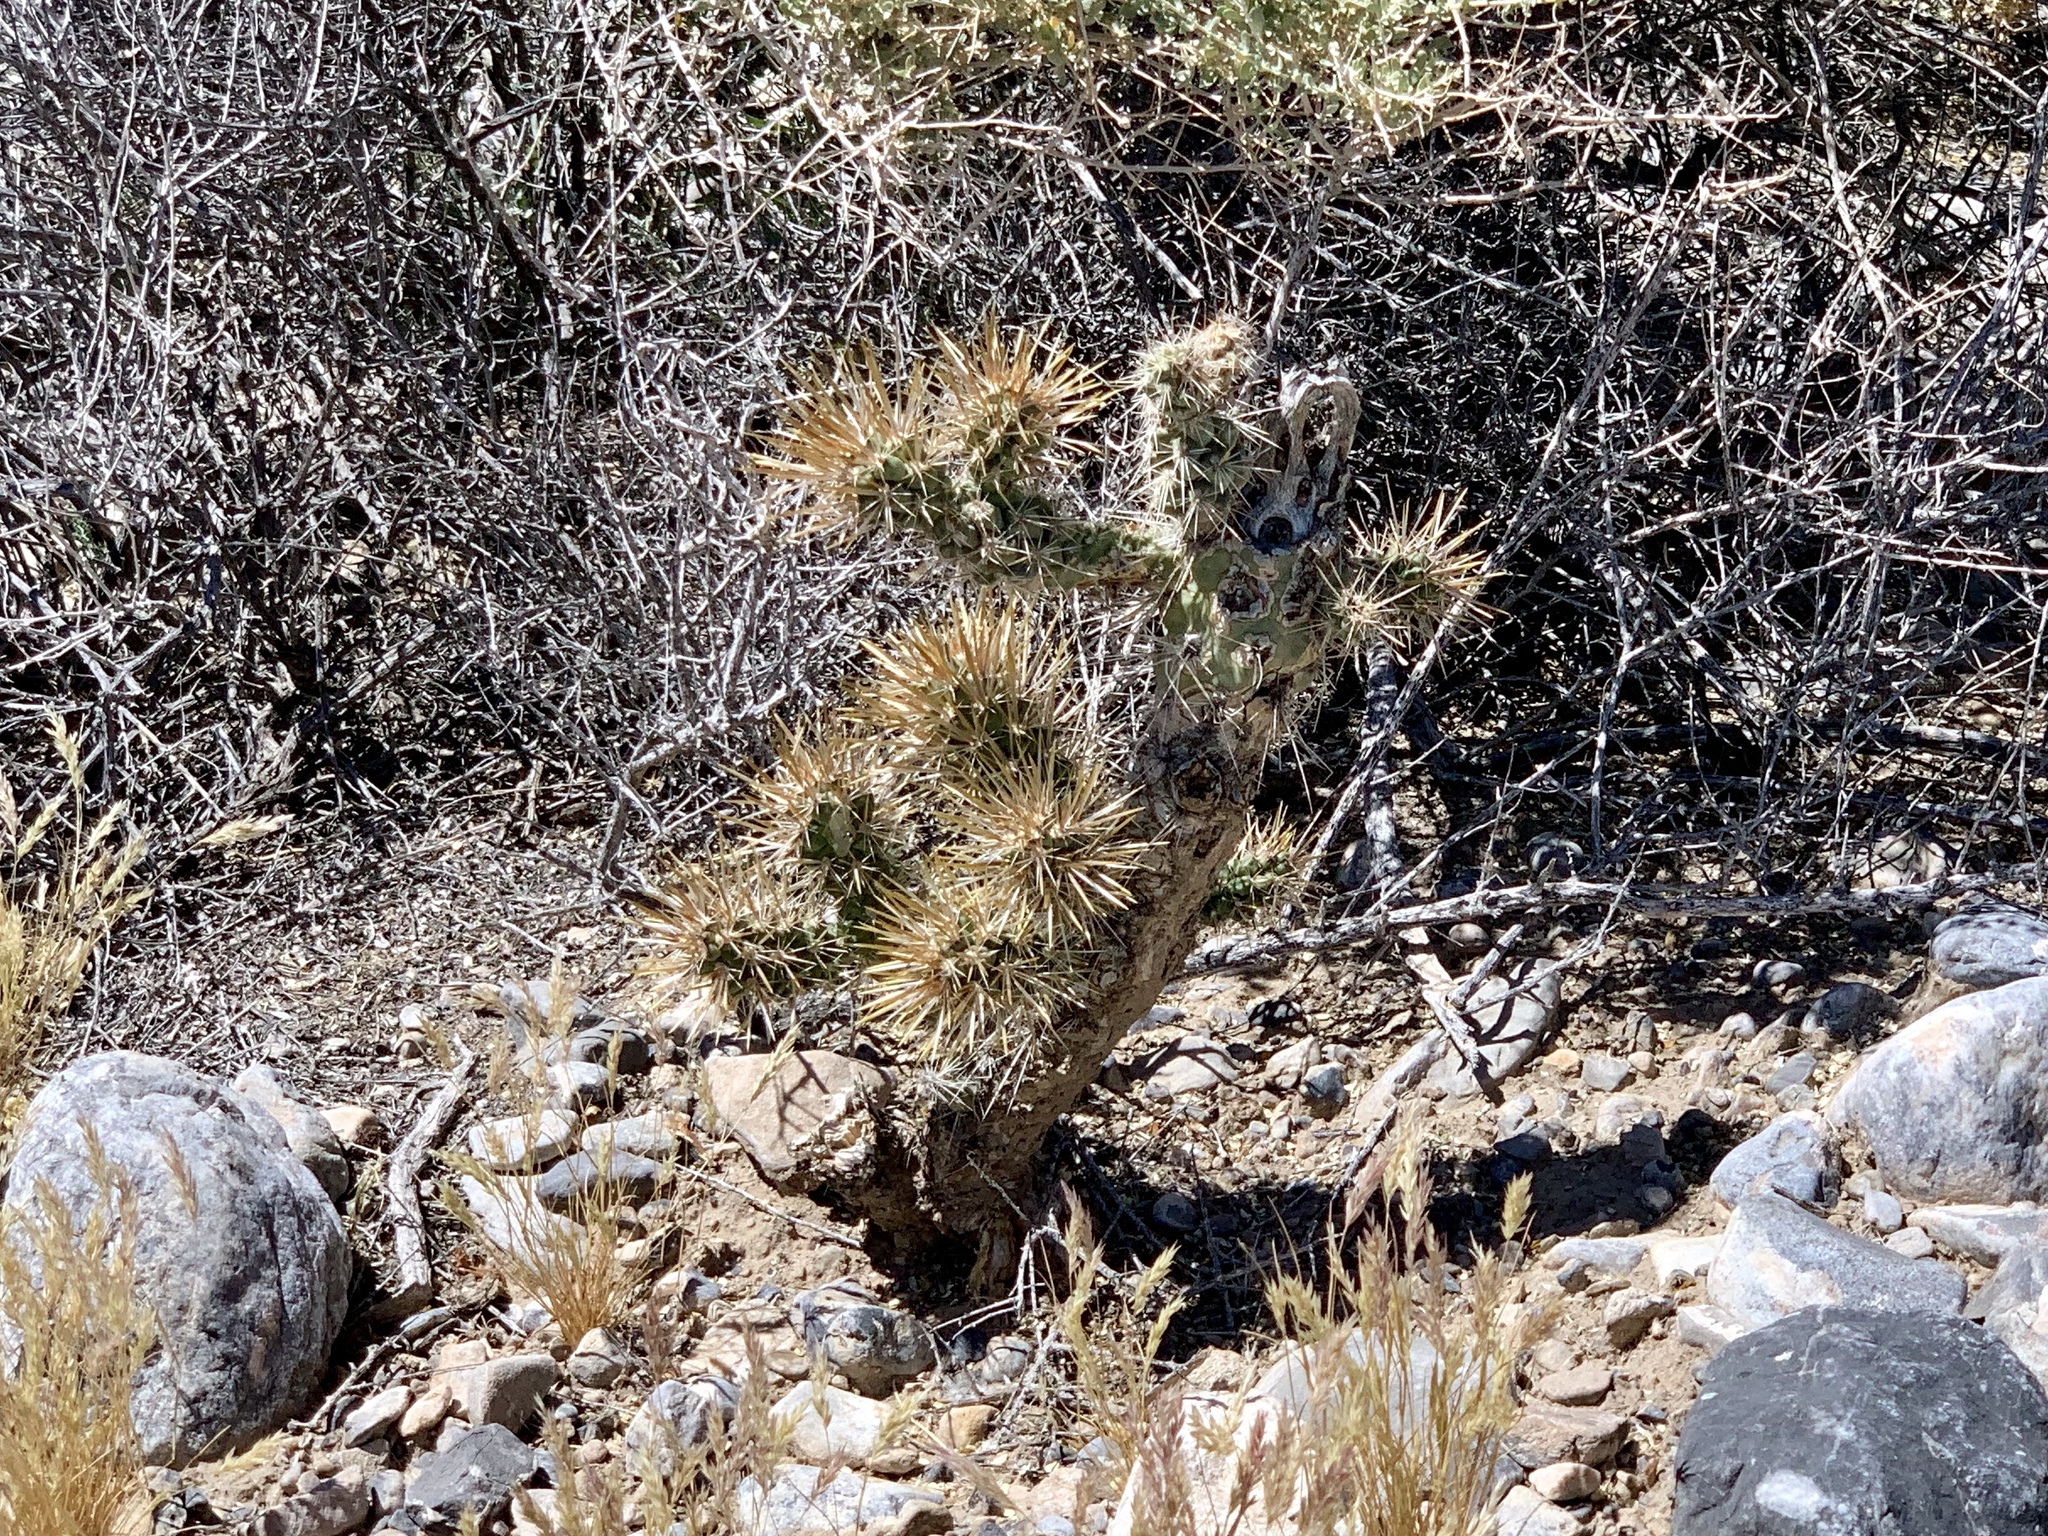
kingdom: Plantae
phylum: Tracheophyta
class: Magnoliopsida
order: Caryophyllales
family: Cactaceae
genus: Cylindropuntia
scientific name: Cylindropuntia echinocarpa
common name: Ground cholla
